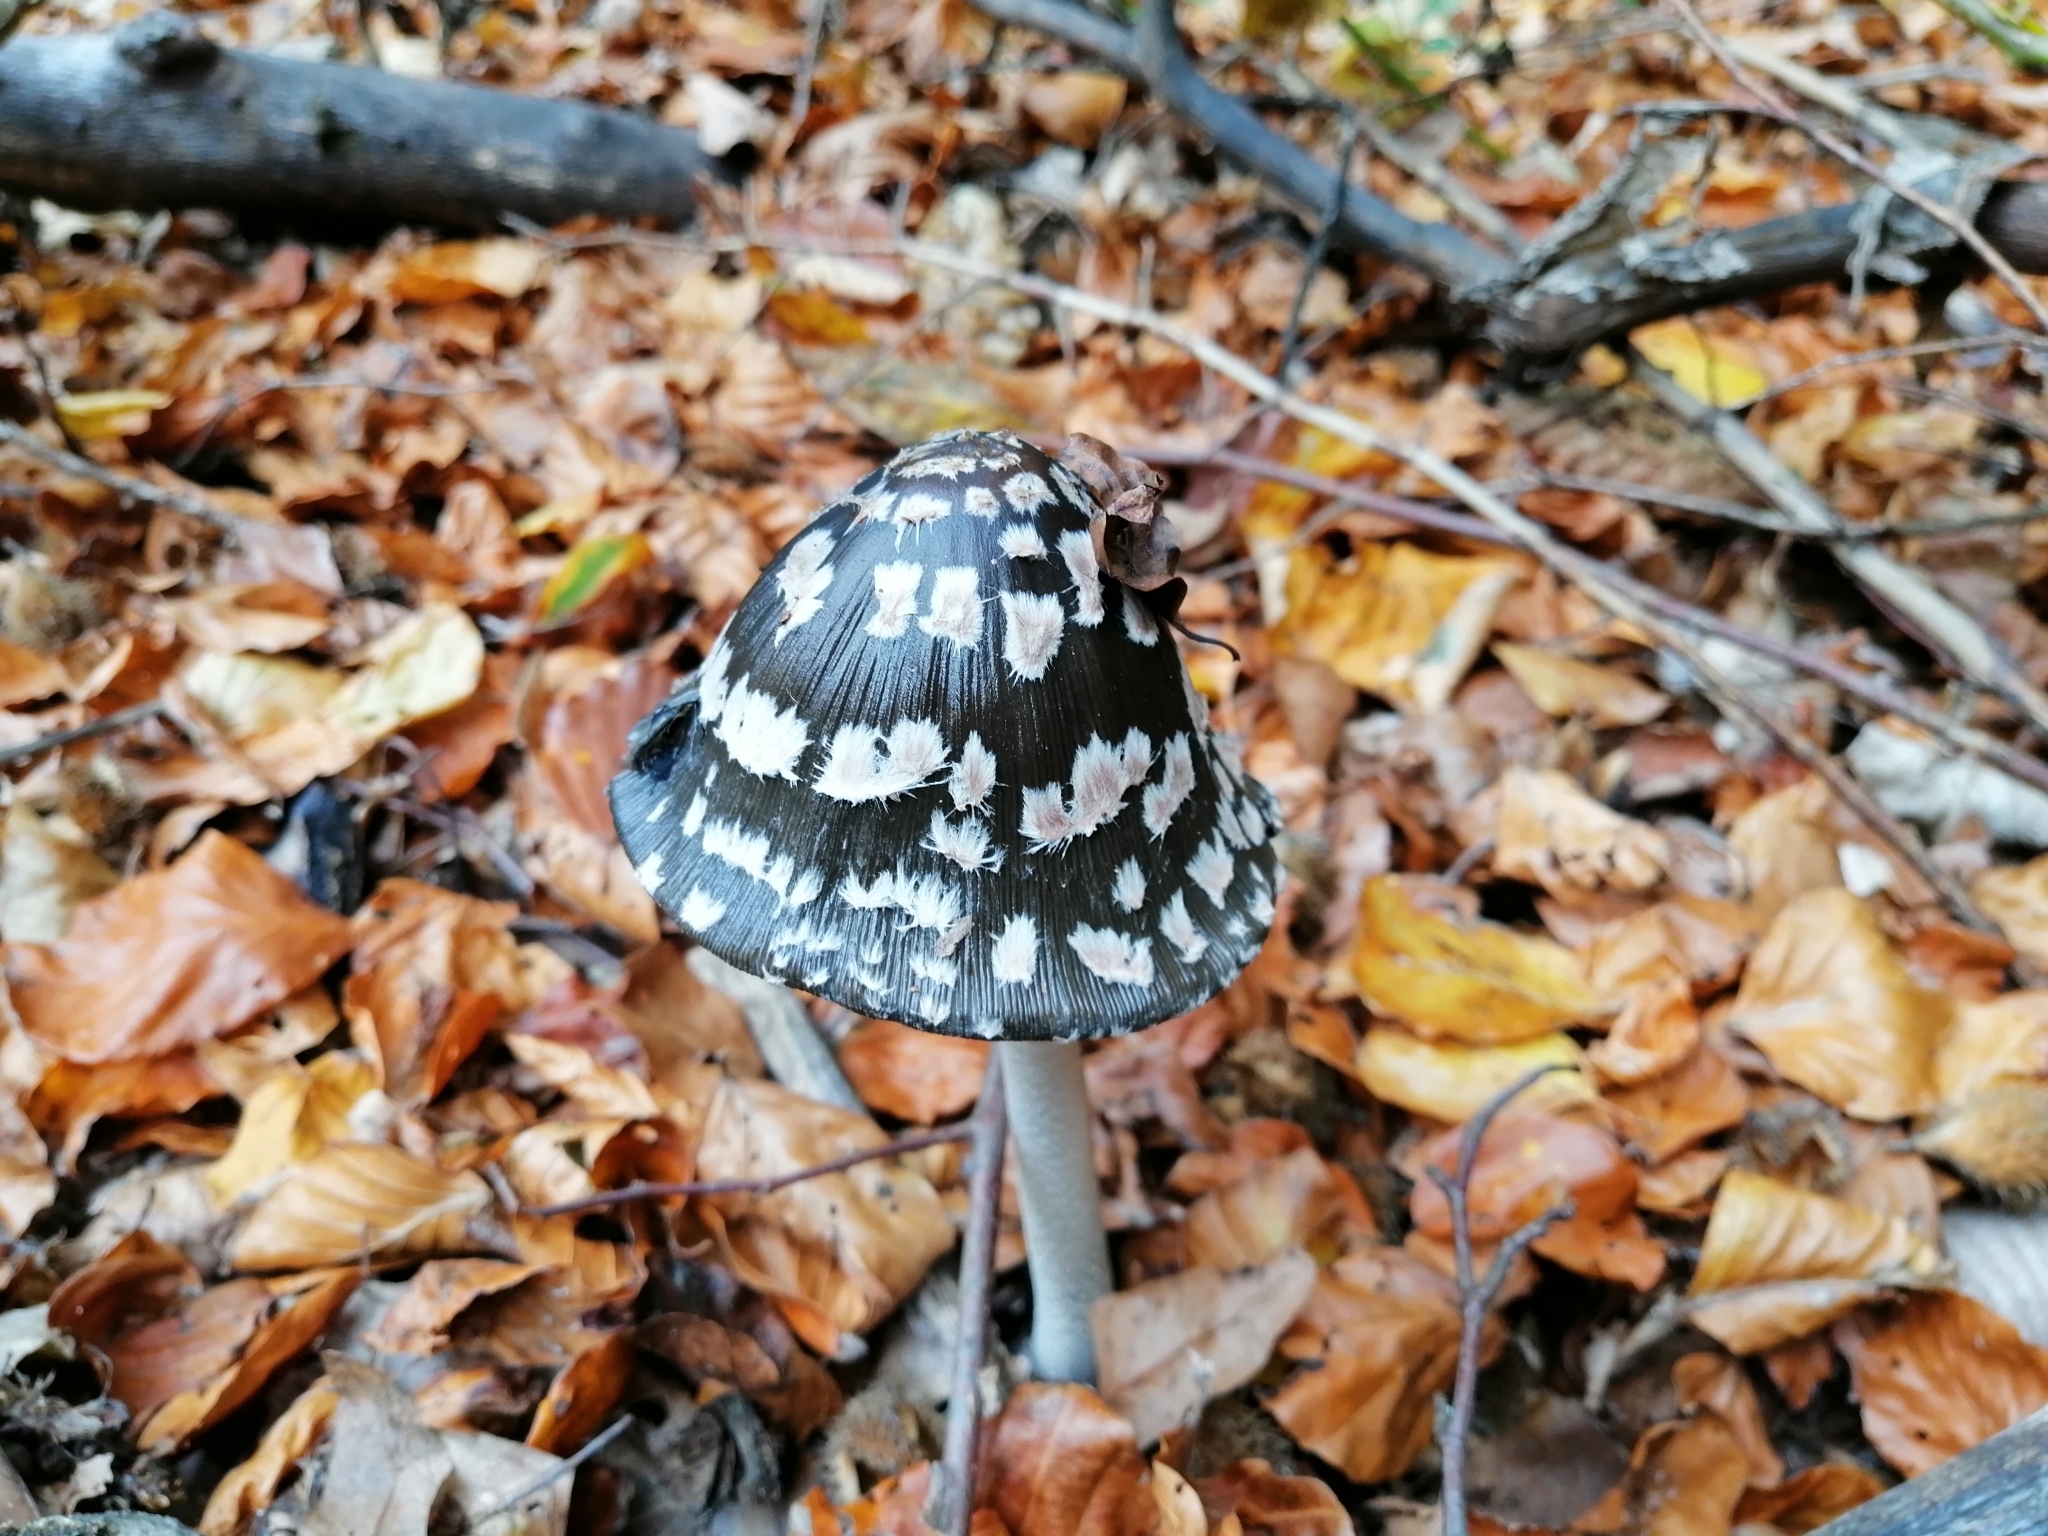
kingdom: Fungi
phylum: Basidiomycota
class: Agaricomycetes
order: Agaricales
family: Psathyrellaceae
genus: Coprinopsis
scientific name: Coprinopsis picacea
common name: Magpie inkcap
